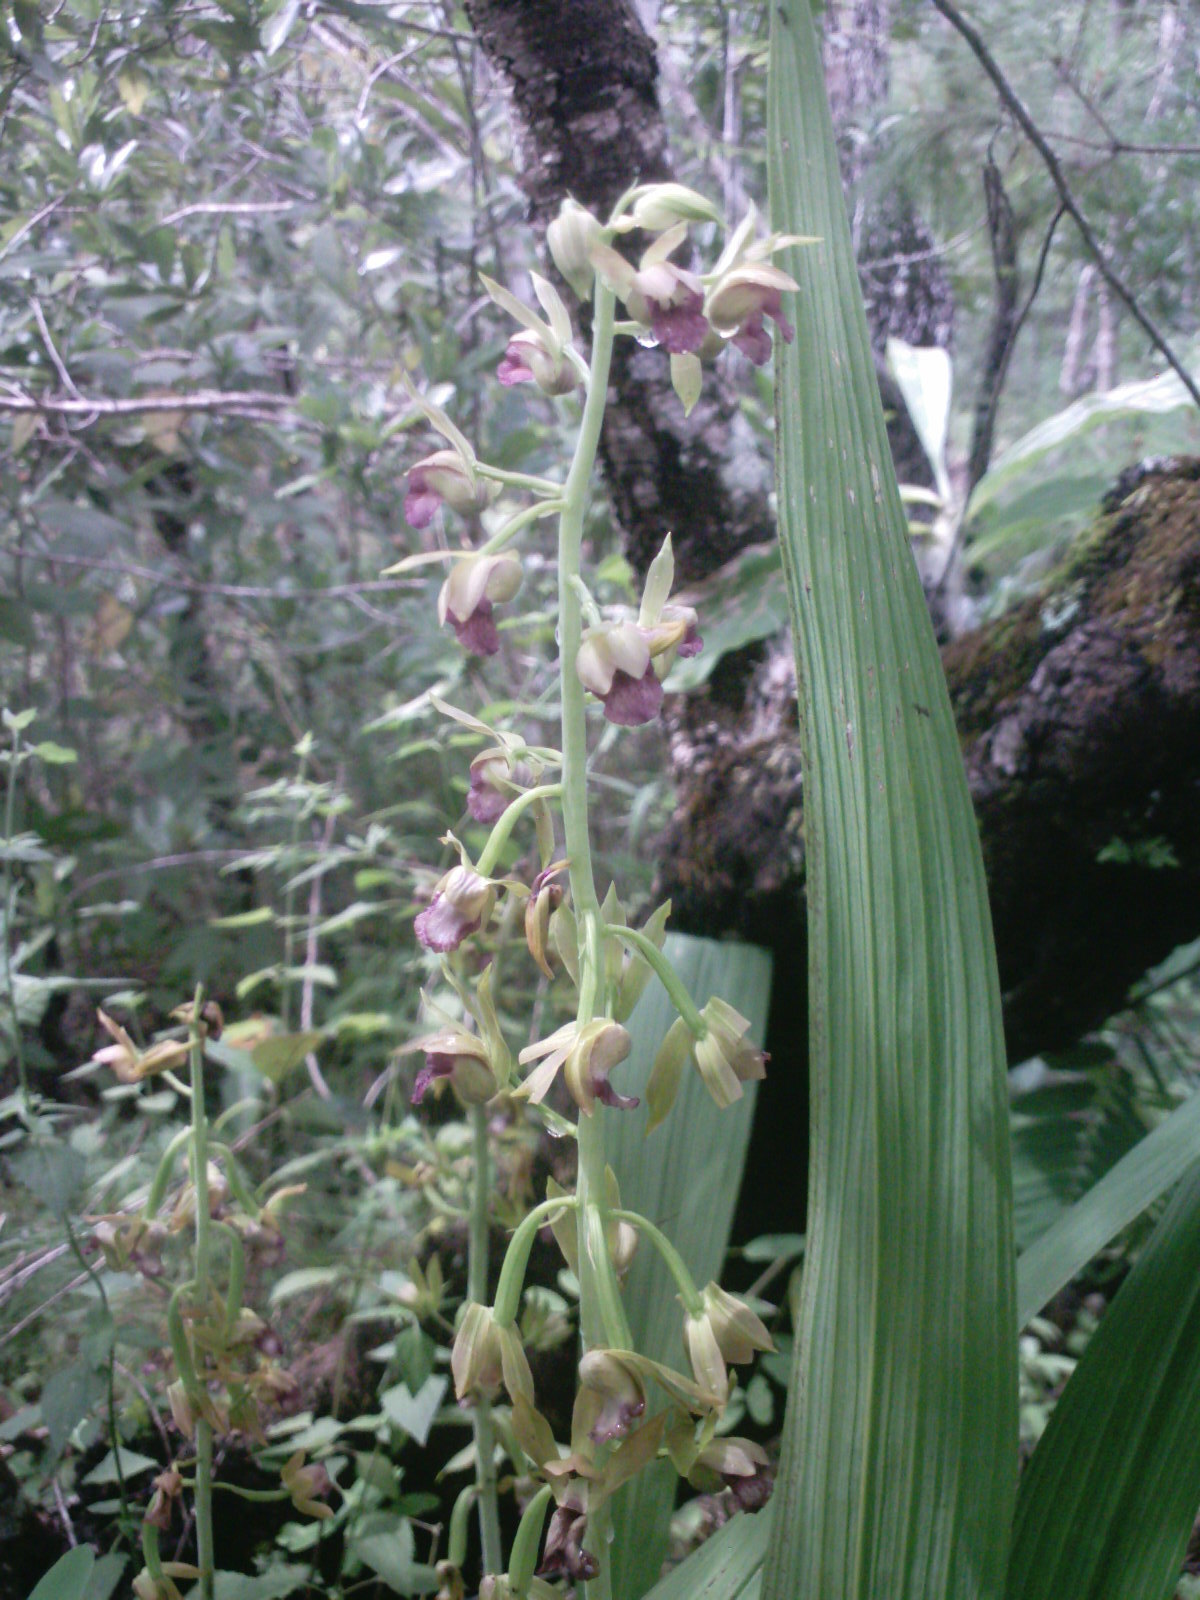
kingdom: Plantae
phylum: Tracheophyta
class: Liliopsida
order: Asparagales
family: Orchidaceae
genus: Eulophia
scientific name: Eulophia alta
